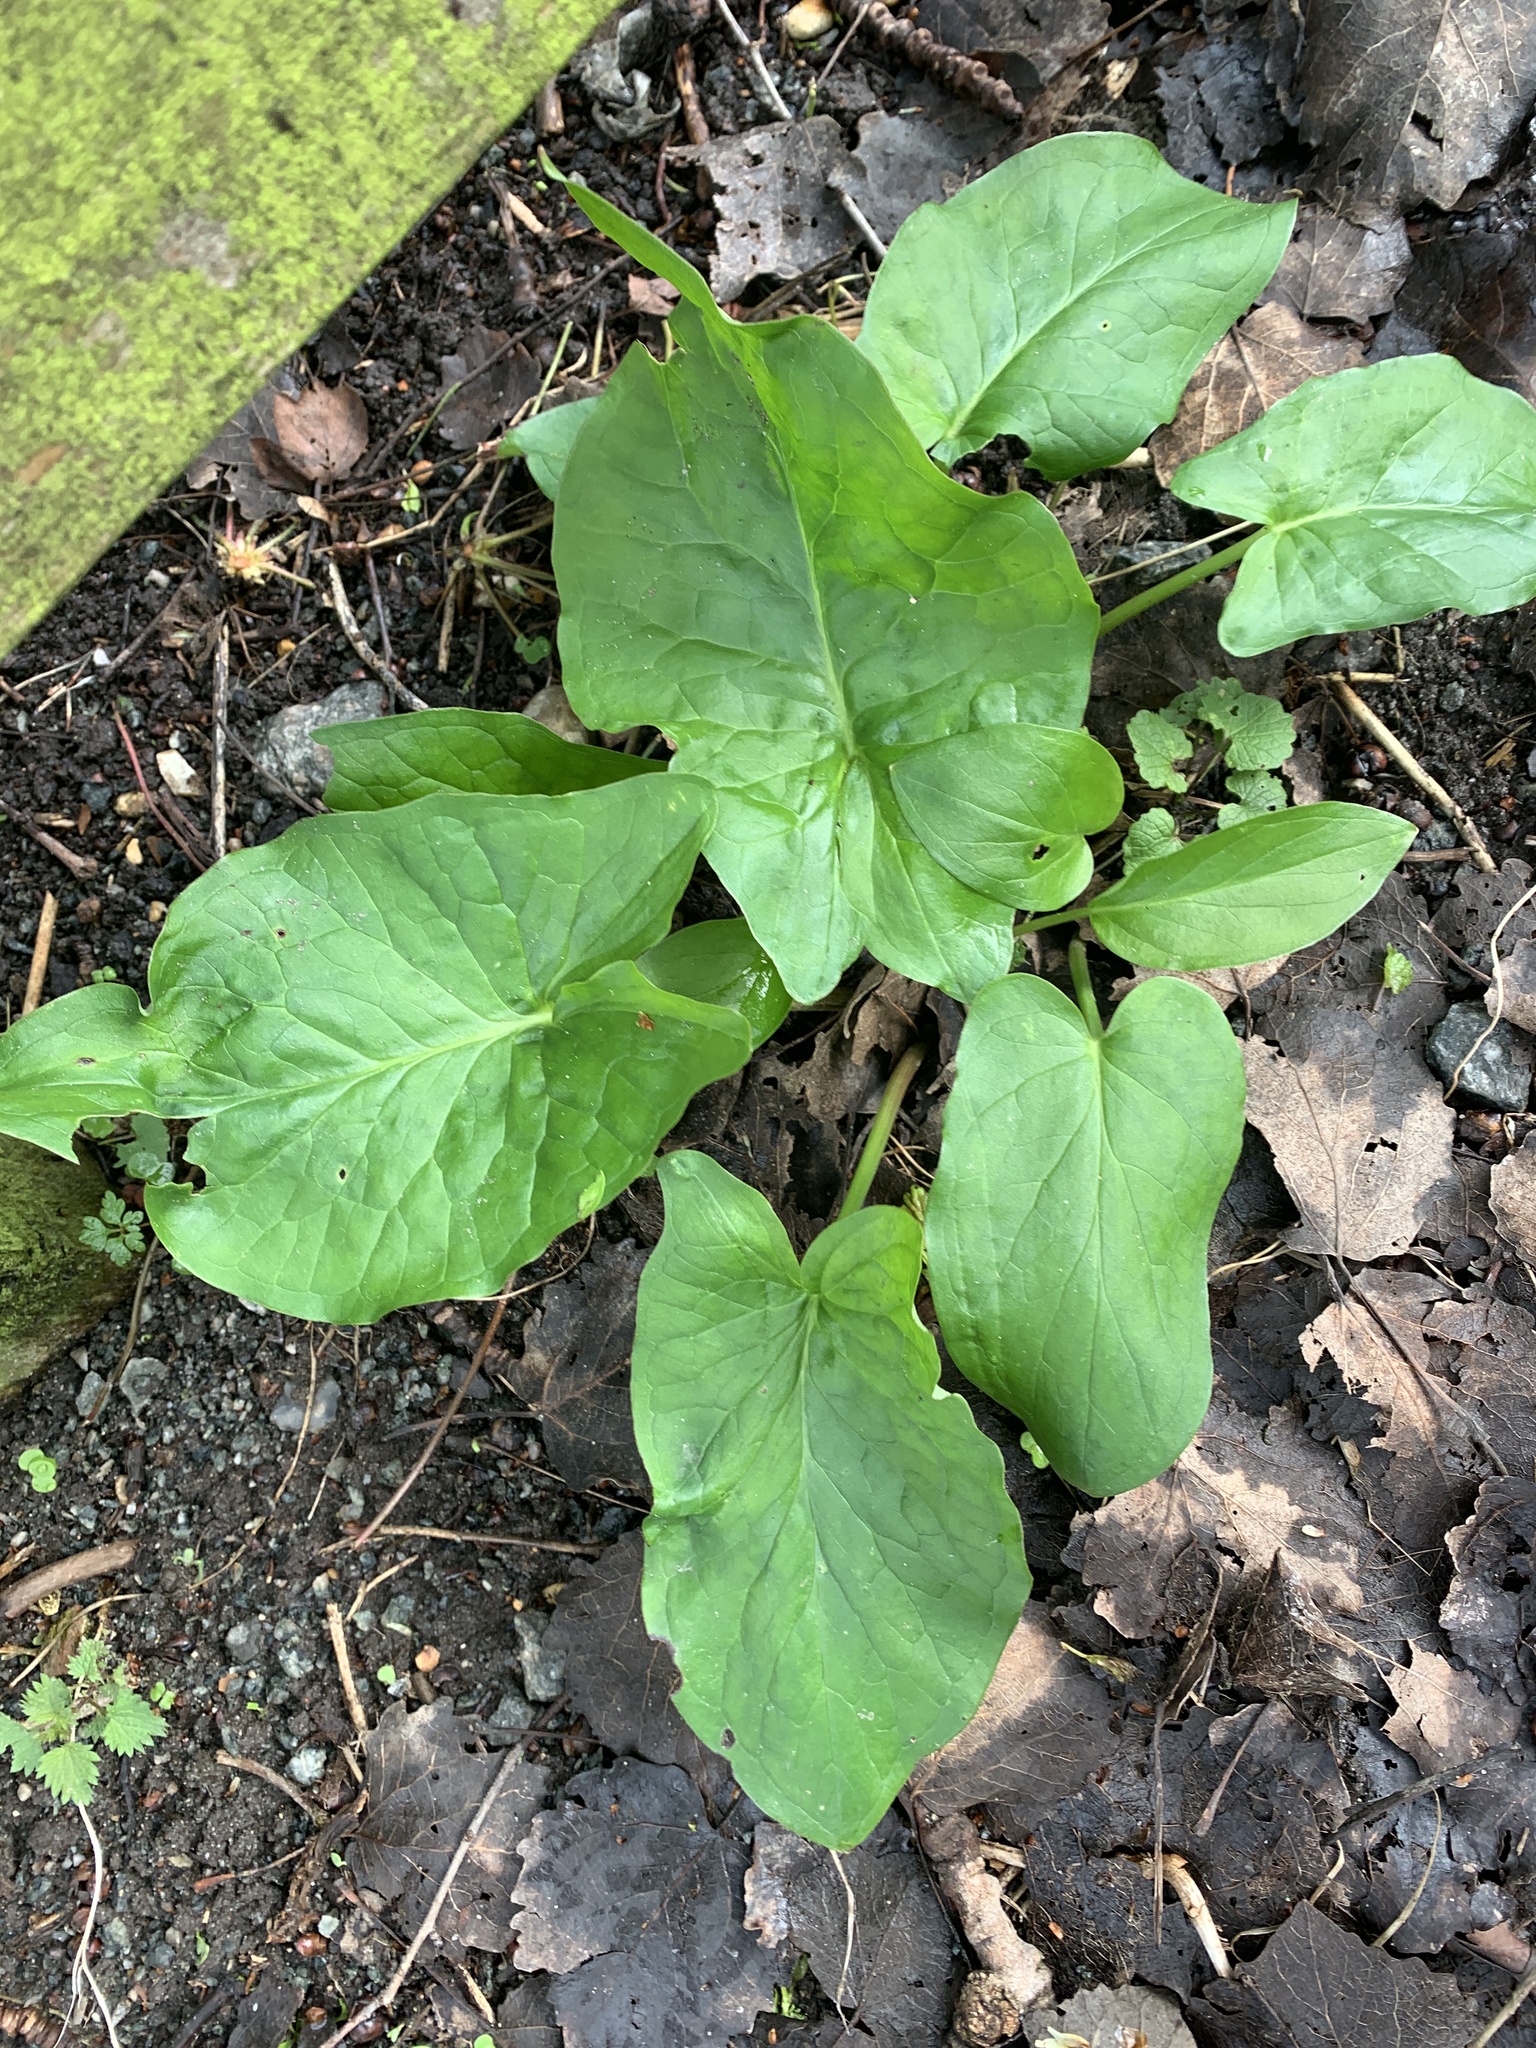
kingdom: Plantae
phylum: Tracheophyta
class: Liliopsida
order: Alismatales
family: Araceae
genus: Arum
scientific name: Arum maculatum
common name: Lords-and-ladies
